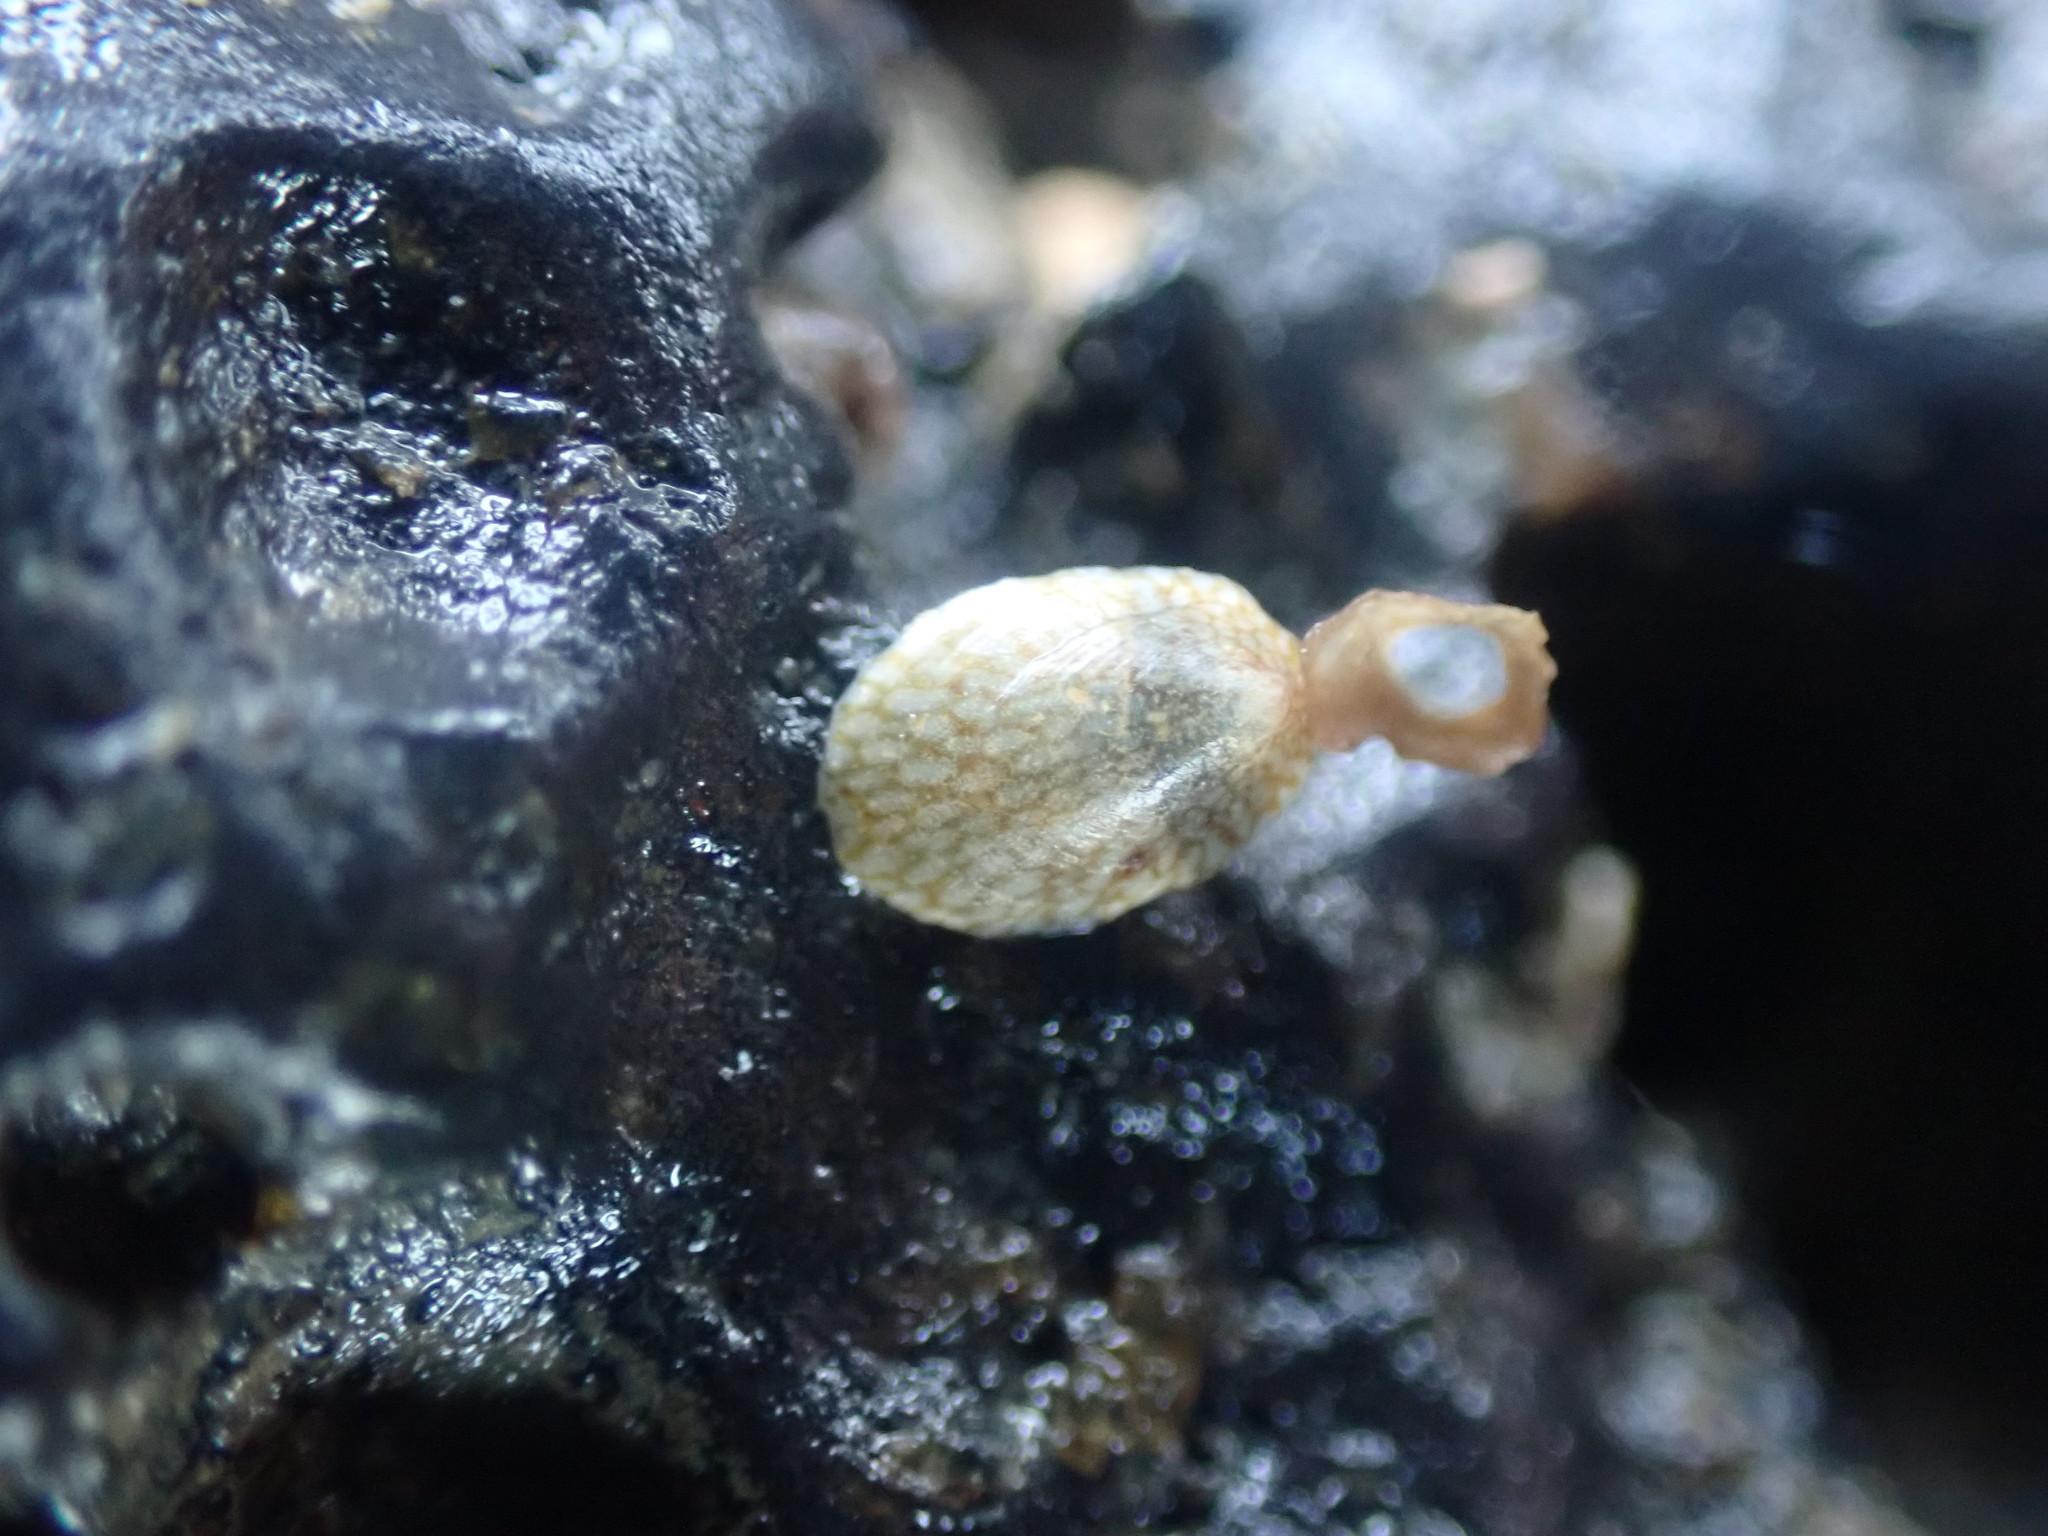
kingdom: Animalia
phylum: Mollusca
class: Gastropoda
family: Lottiidae
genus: Notoacmea
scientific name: Notoacmea
